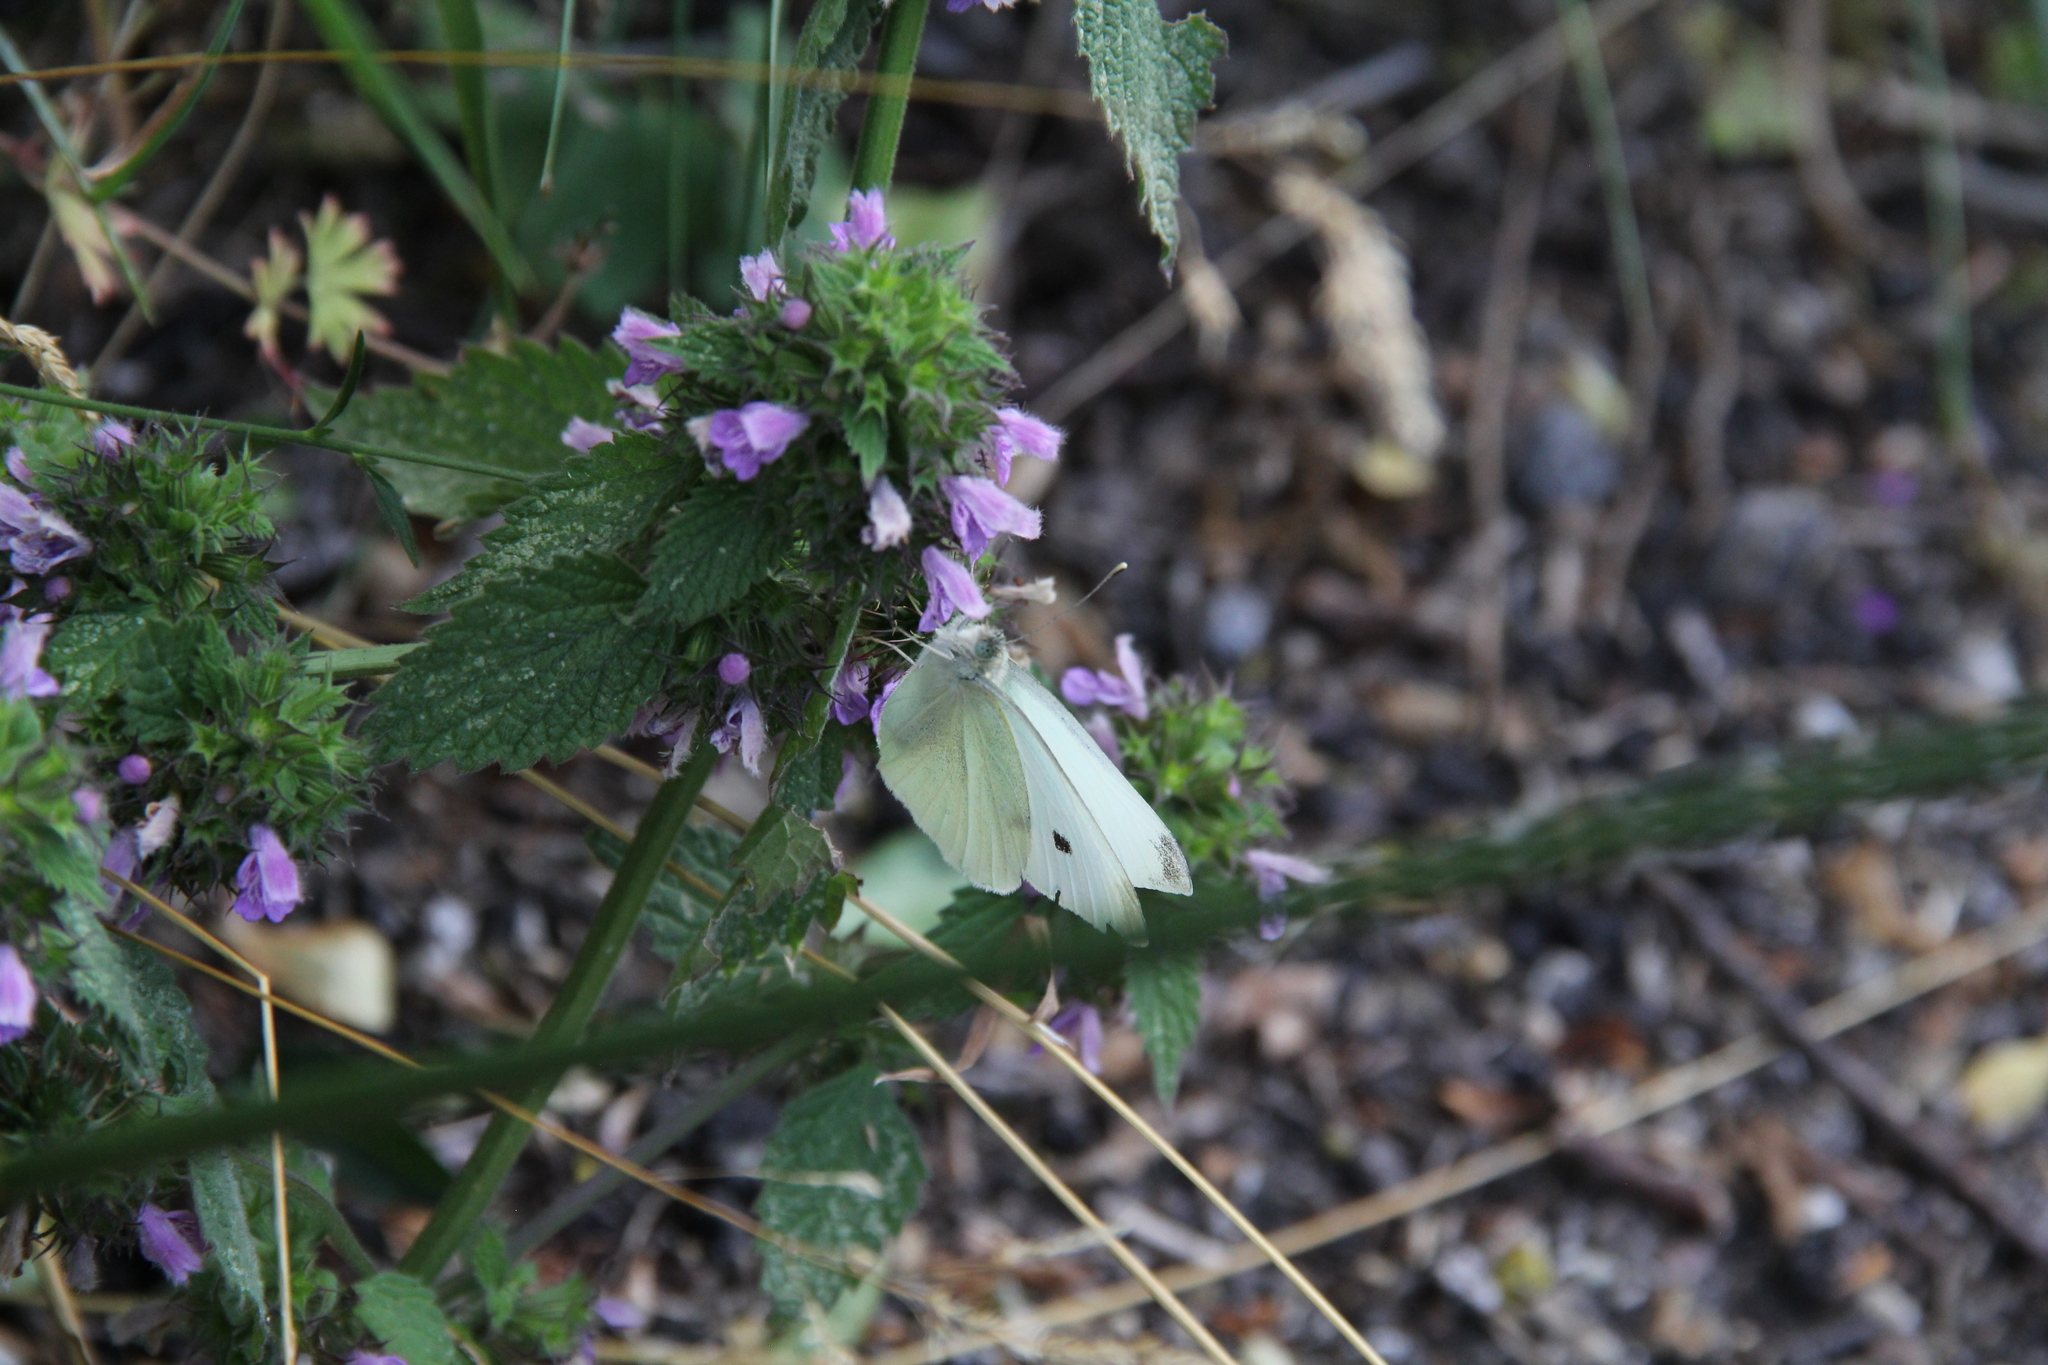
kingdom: Animalia
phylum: Arthropoda
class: Insecta
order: Lepidoptera
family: Pieridae
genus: Pieris
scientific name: Pieris rapae
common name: Small white
